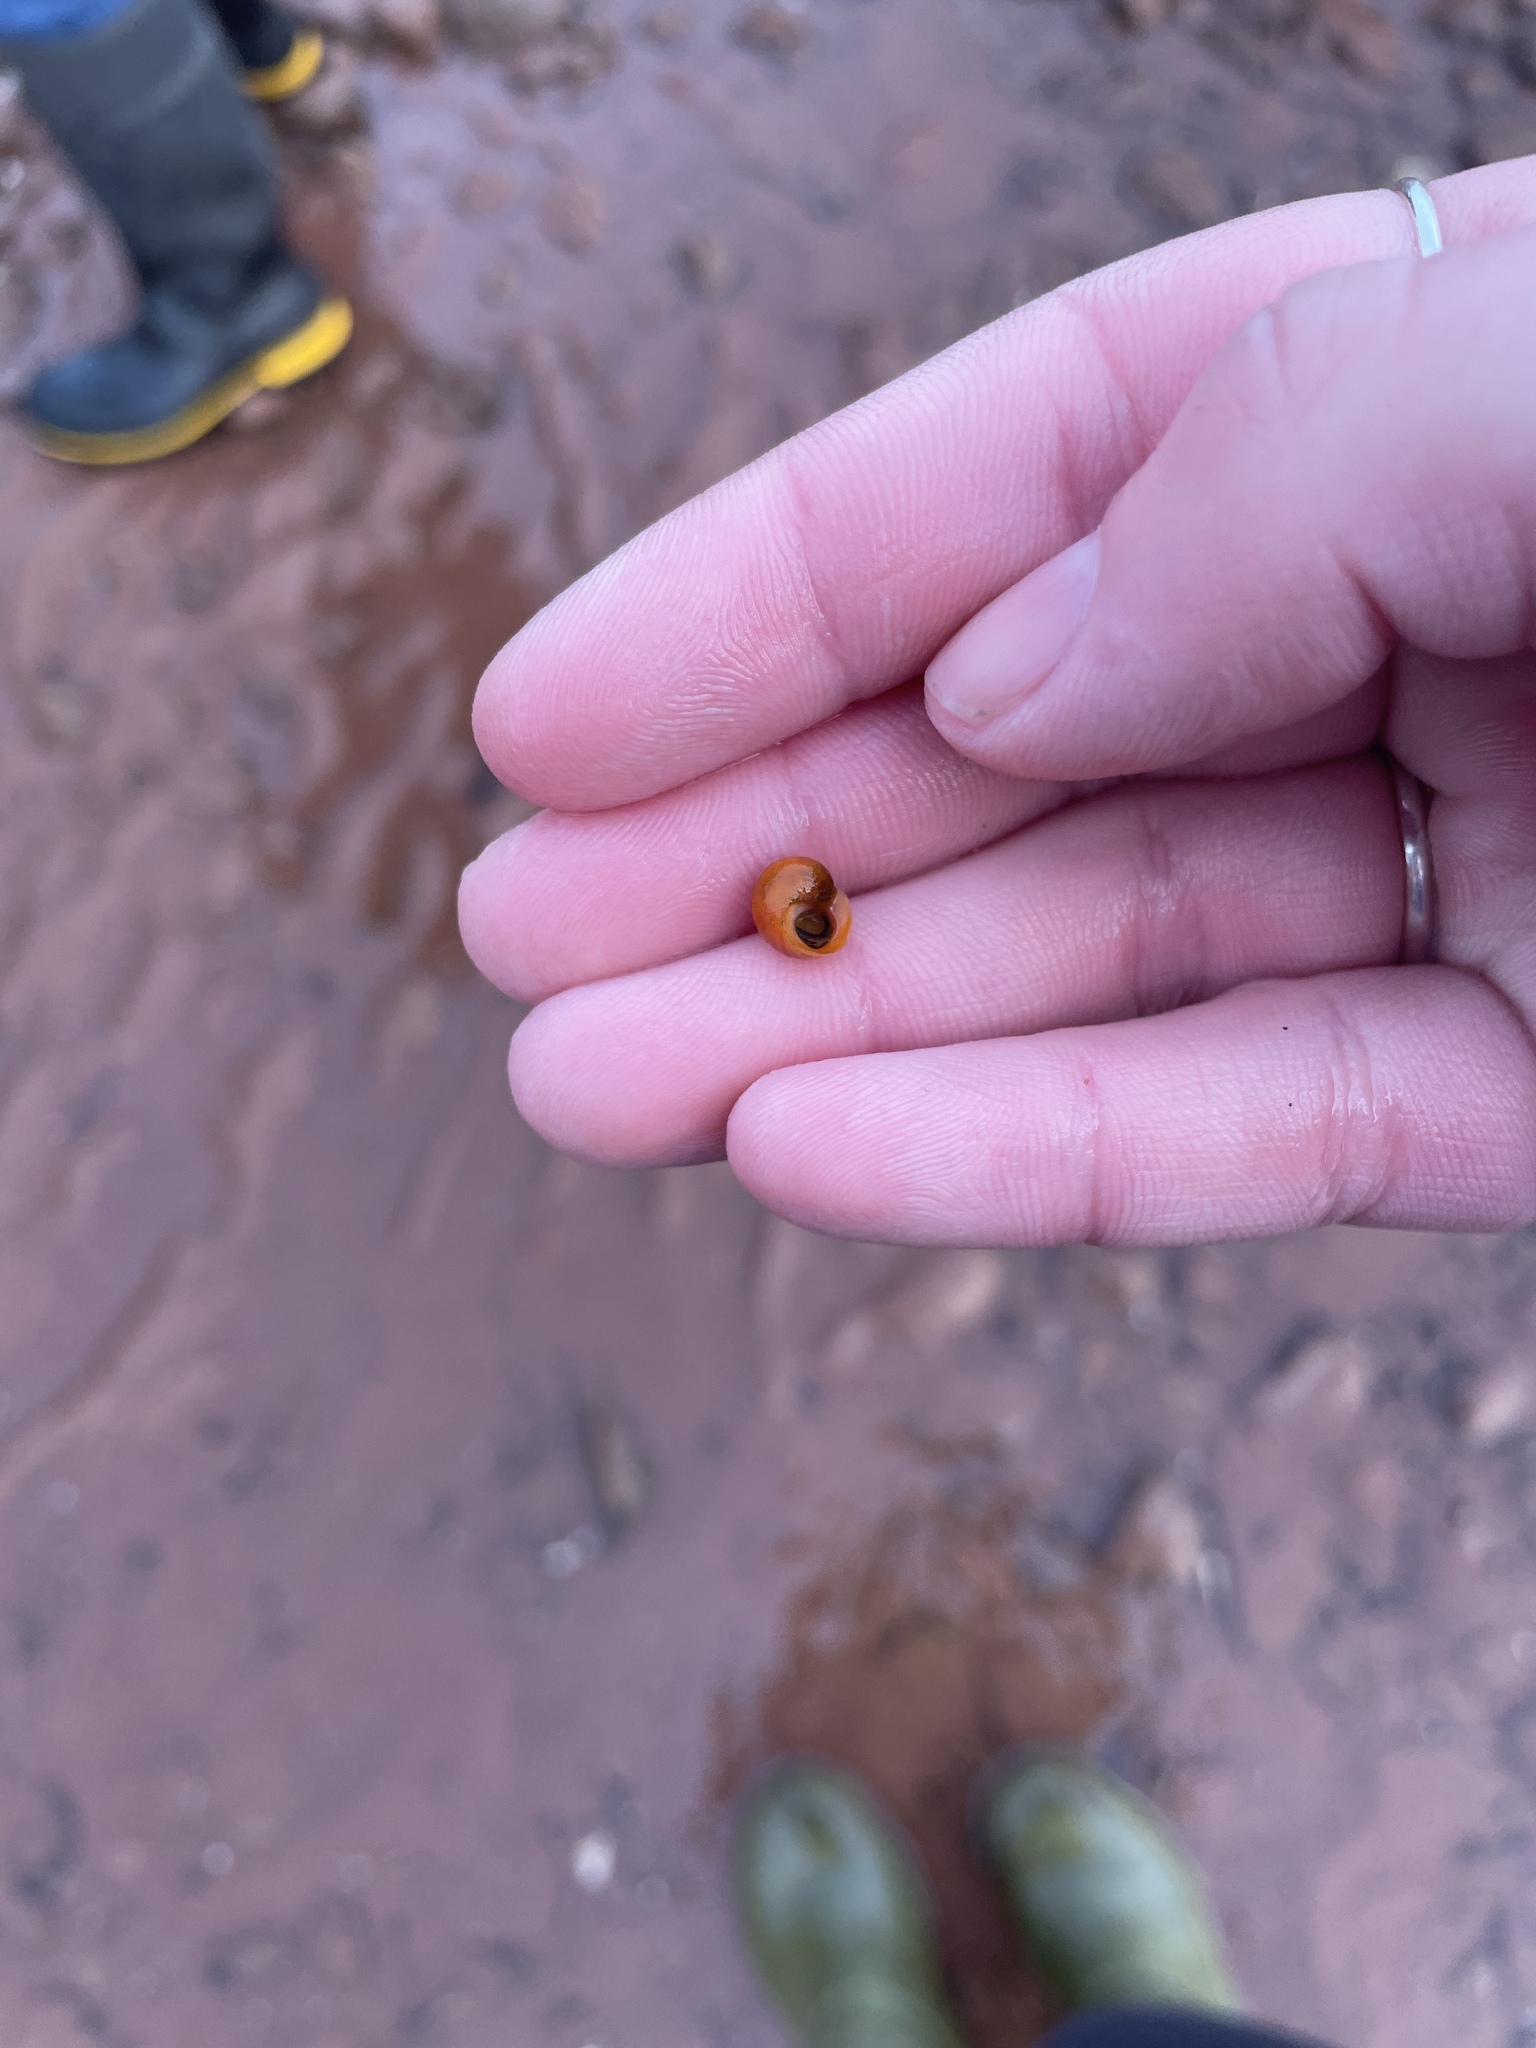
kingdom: Animalia
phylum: Mollusca
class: Gastropoda
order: Littorinimorpha
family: Littorinidae
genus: Littorina
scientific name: Littorina obtusata
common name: Flat periwinkle
